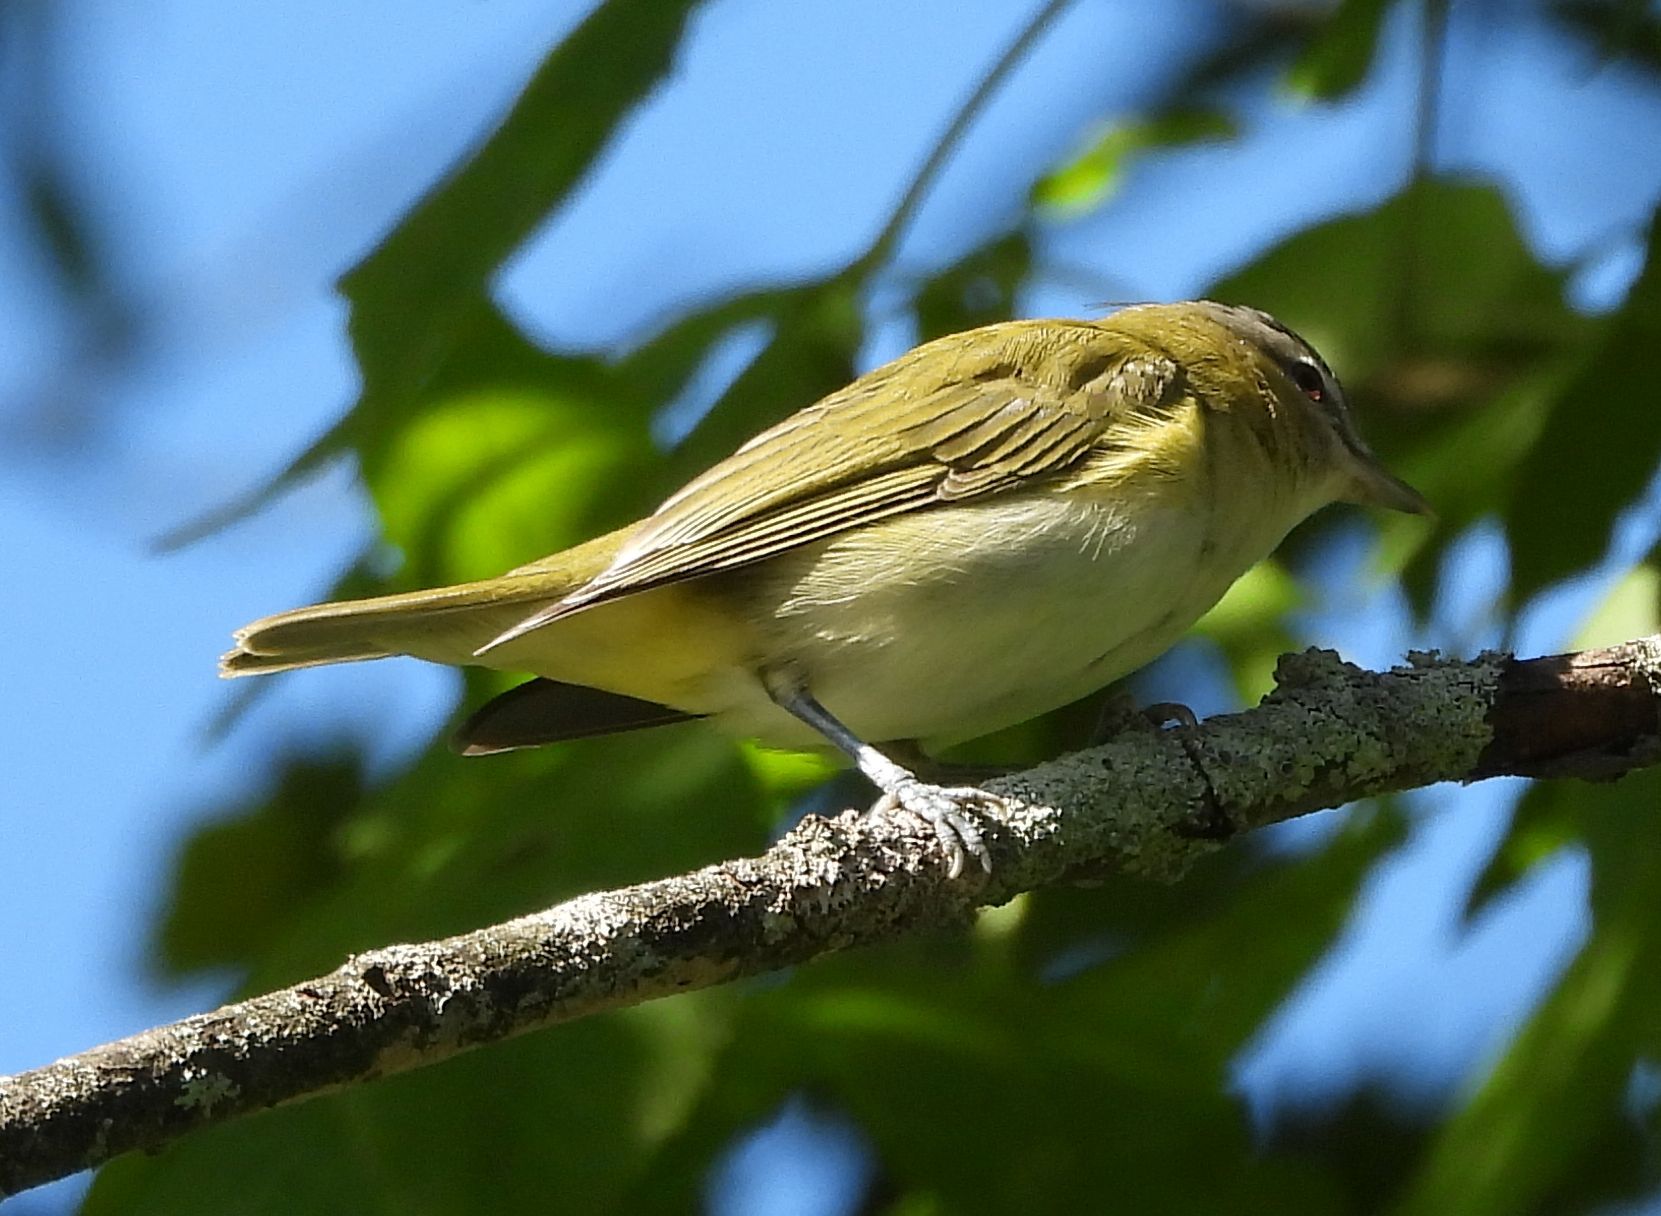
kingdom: Animalia
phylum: Chordata
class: Aves
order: Passeriformes
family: Vireonidae
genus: Vireo
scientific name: Vireo olivaceus
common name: Red-eyed vireo
